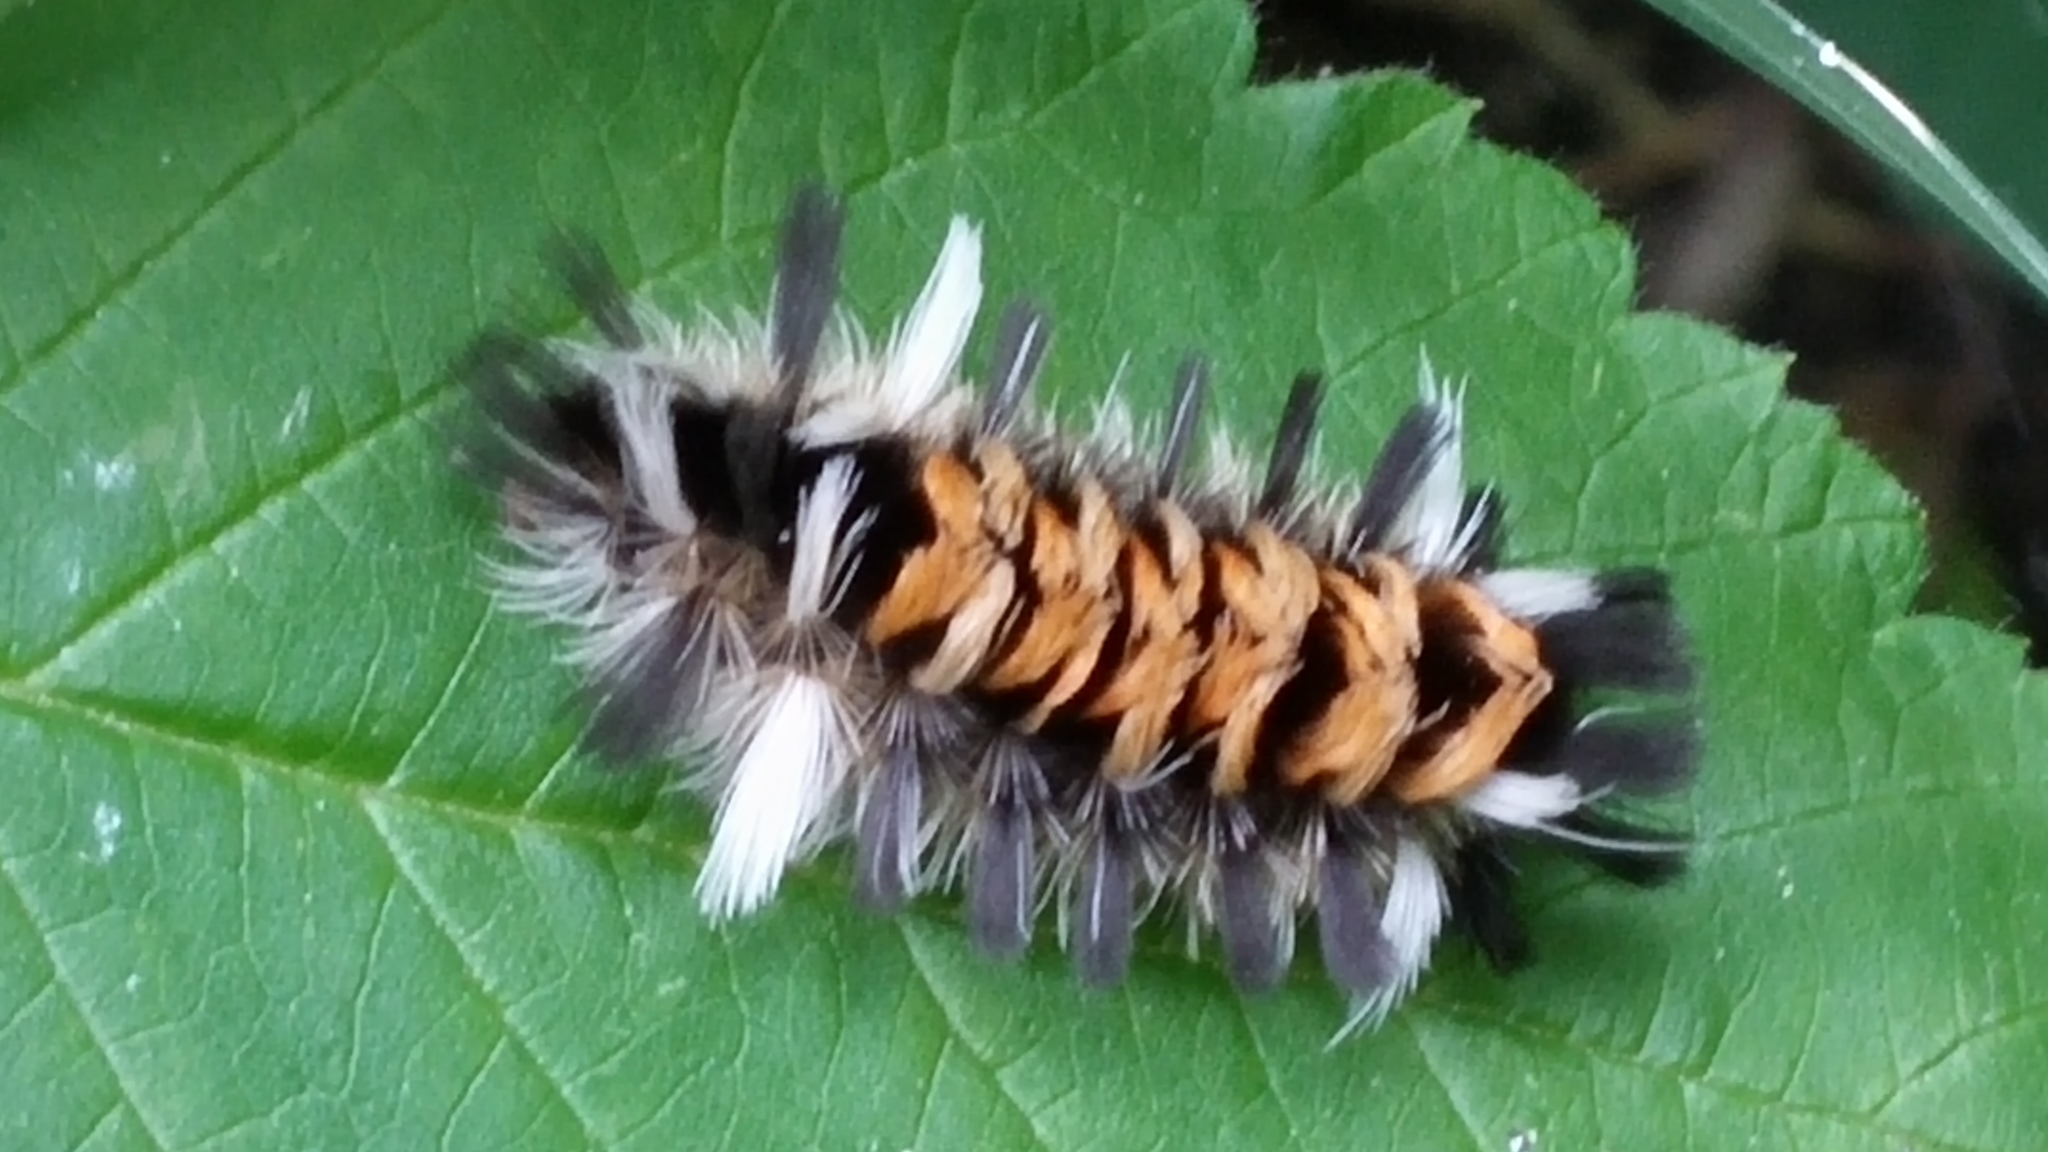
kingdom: Animalia
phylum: Arthropoda
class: Insecta
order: Lepidoptera
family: Erebidae
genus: Euchaetes
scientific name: Euchaetes egle
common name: Milkweed tussock moth
